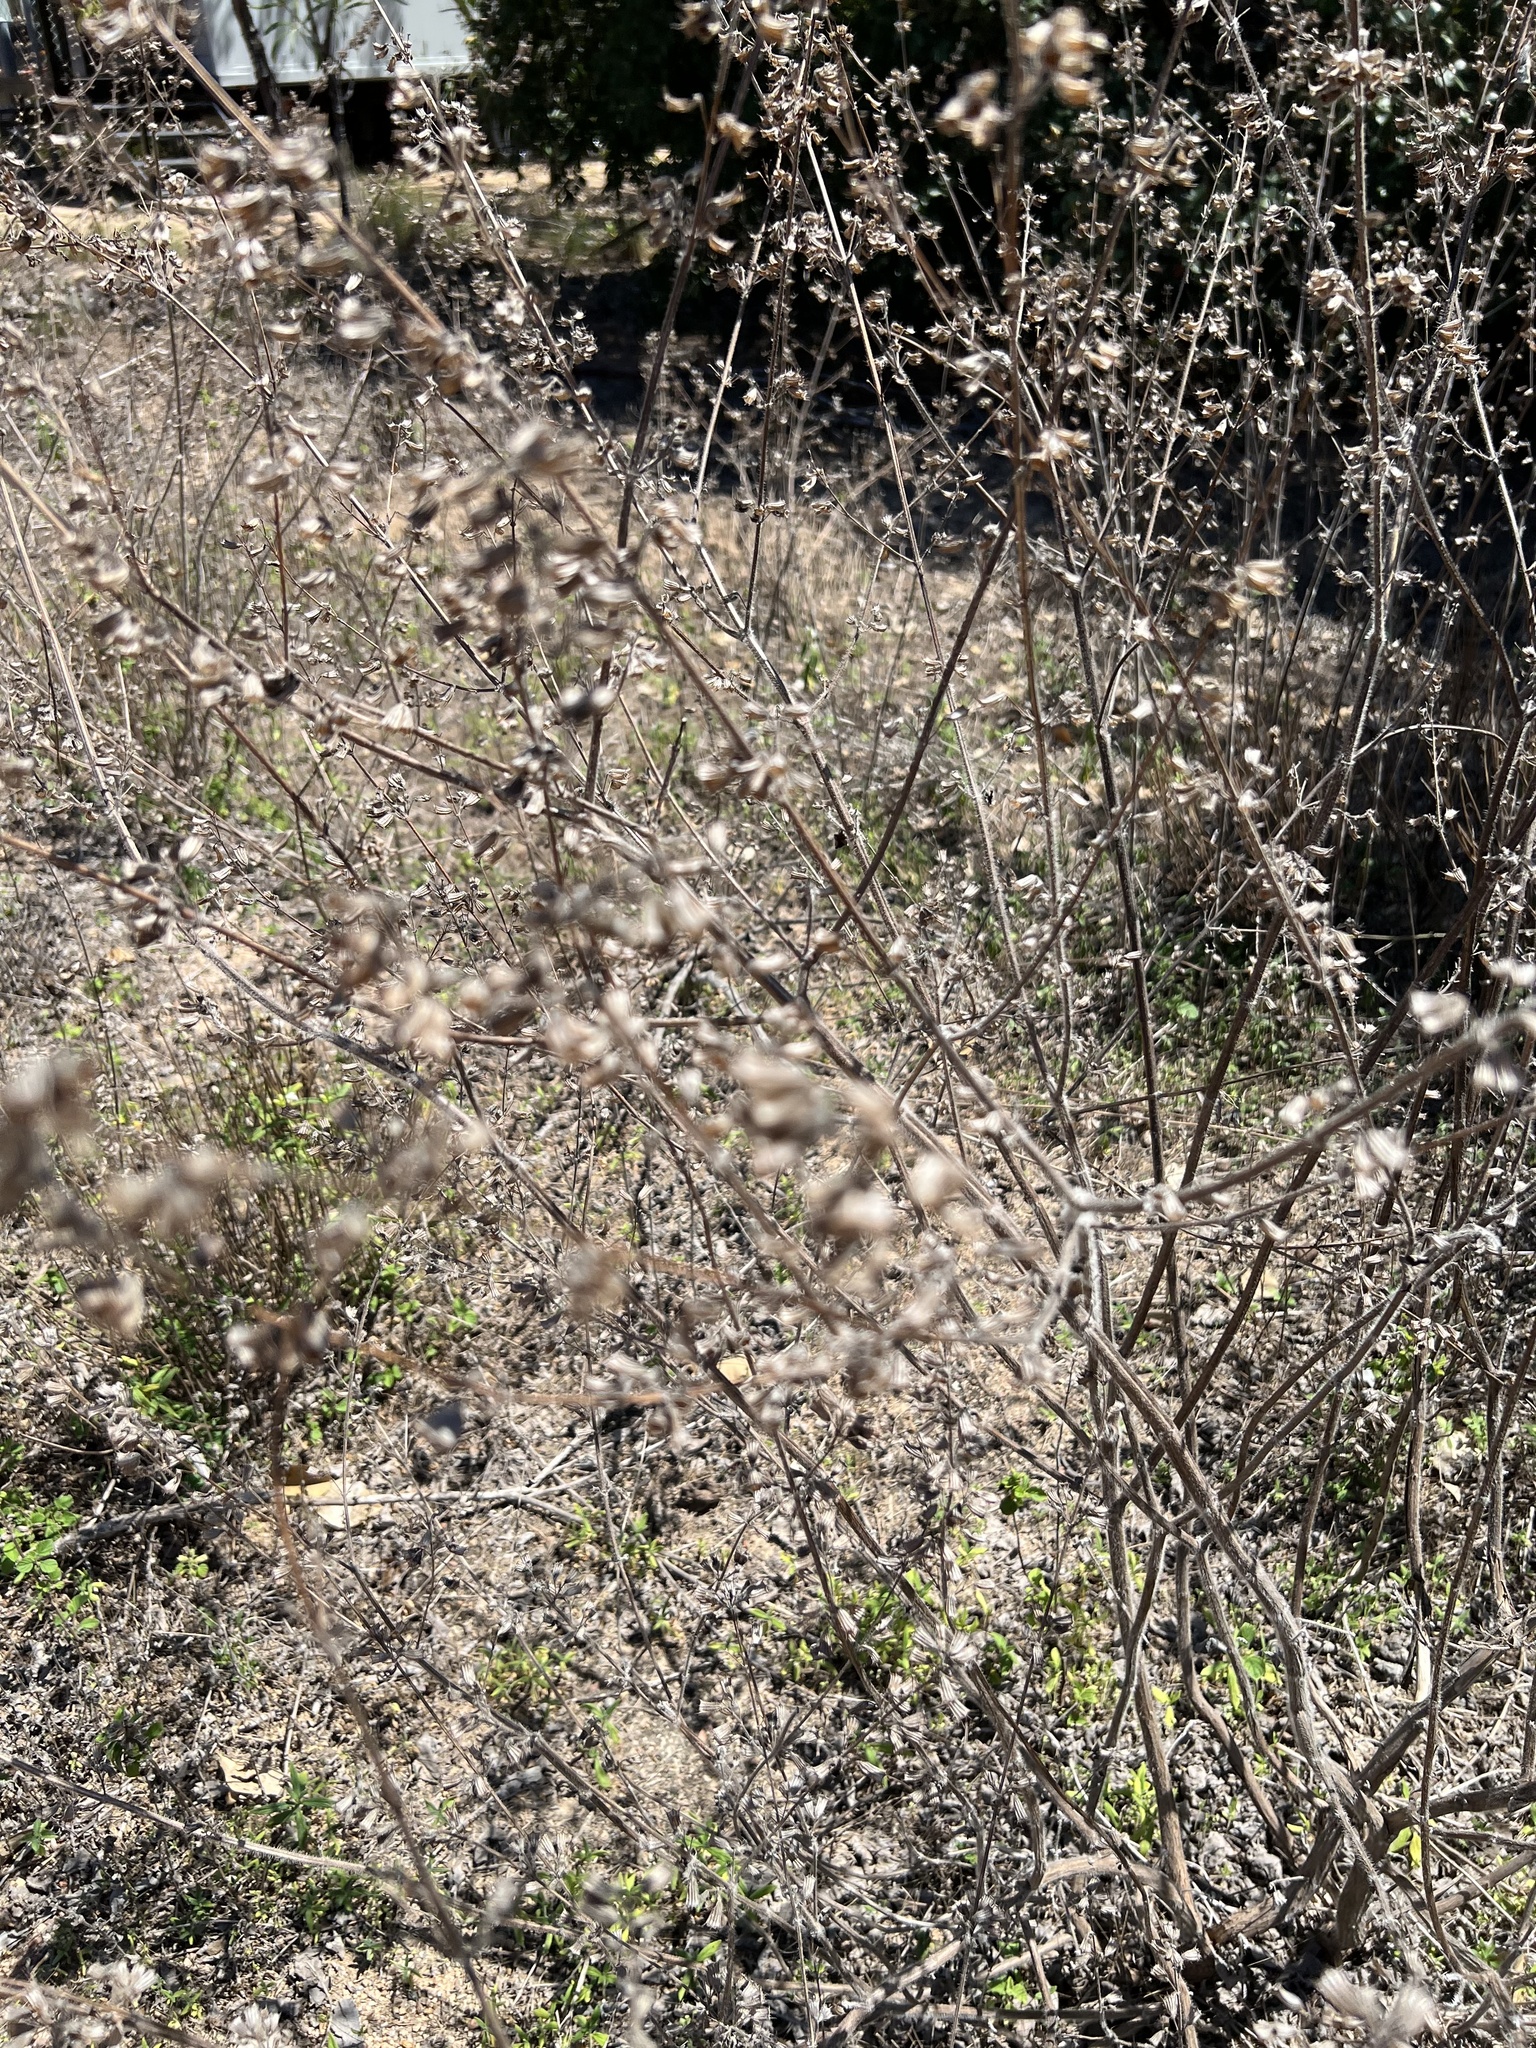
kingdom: Plantae
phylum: Tracheophyta
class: Magnoliopsida
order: Lamiales
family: Lamiaceae
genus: Mesosphaerum
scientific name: Mesosphaerum suaveolens
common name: Pignut
